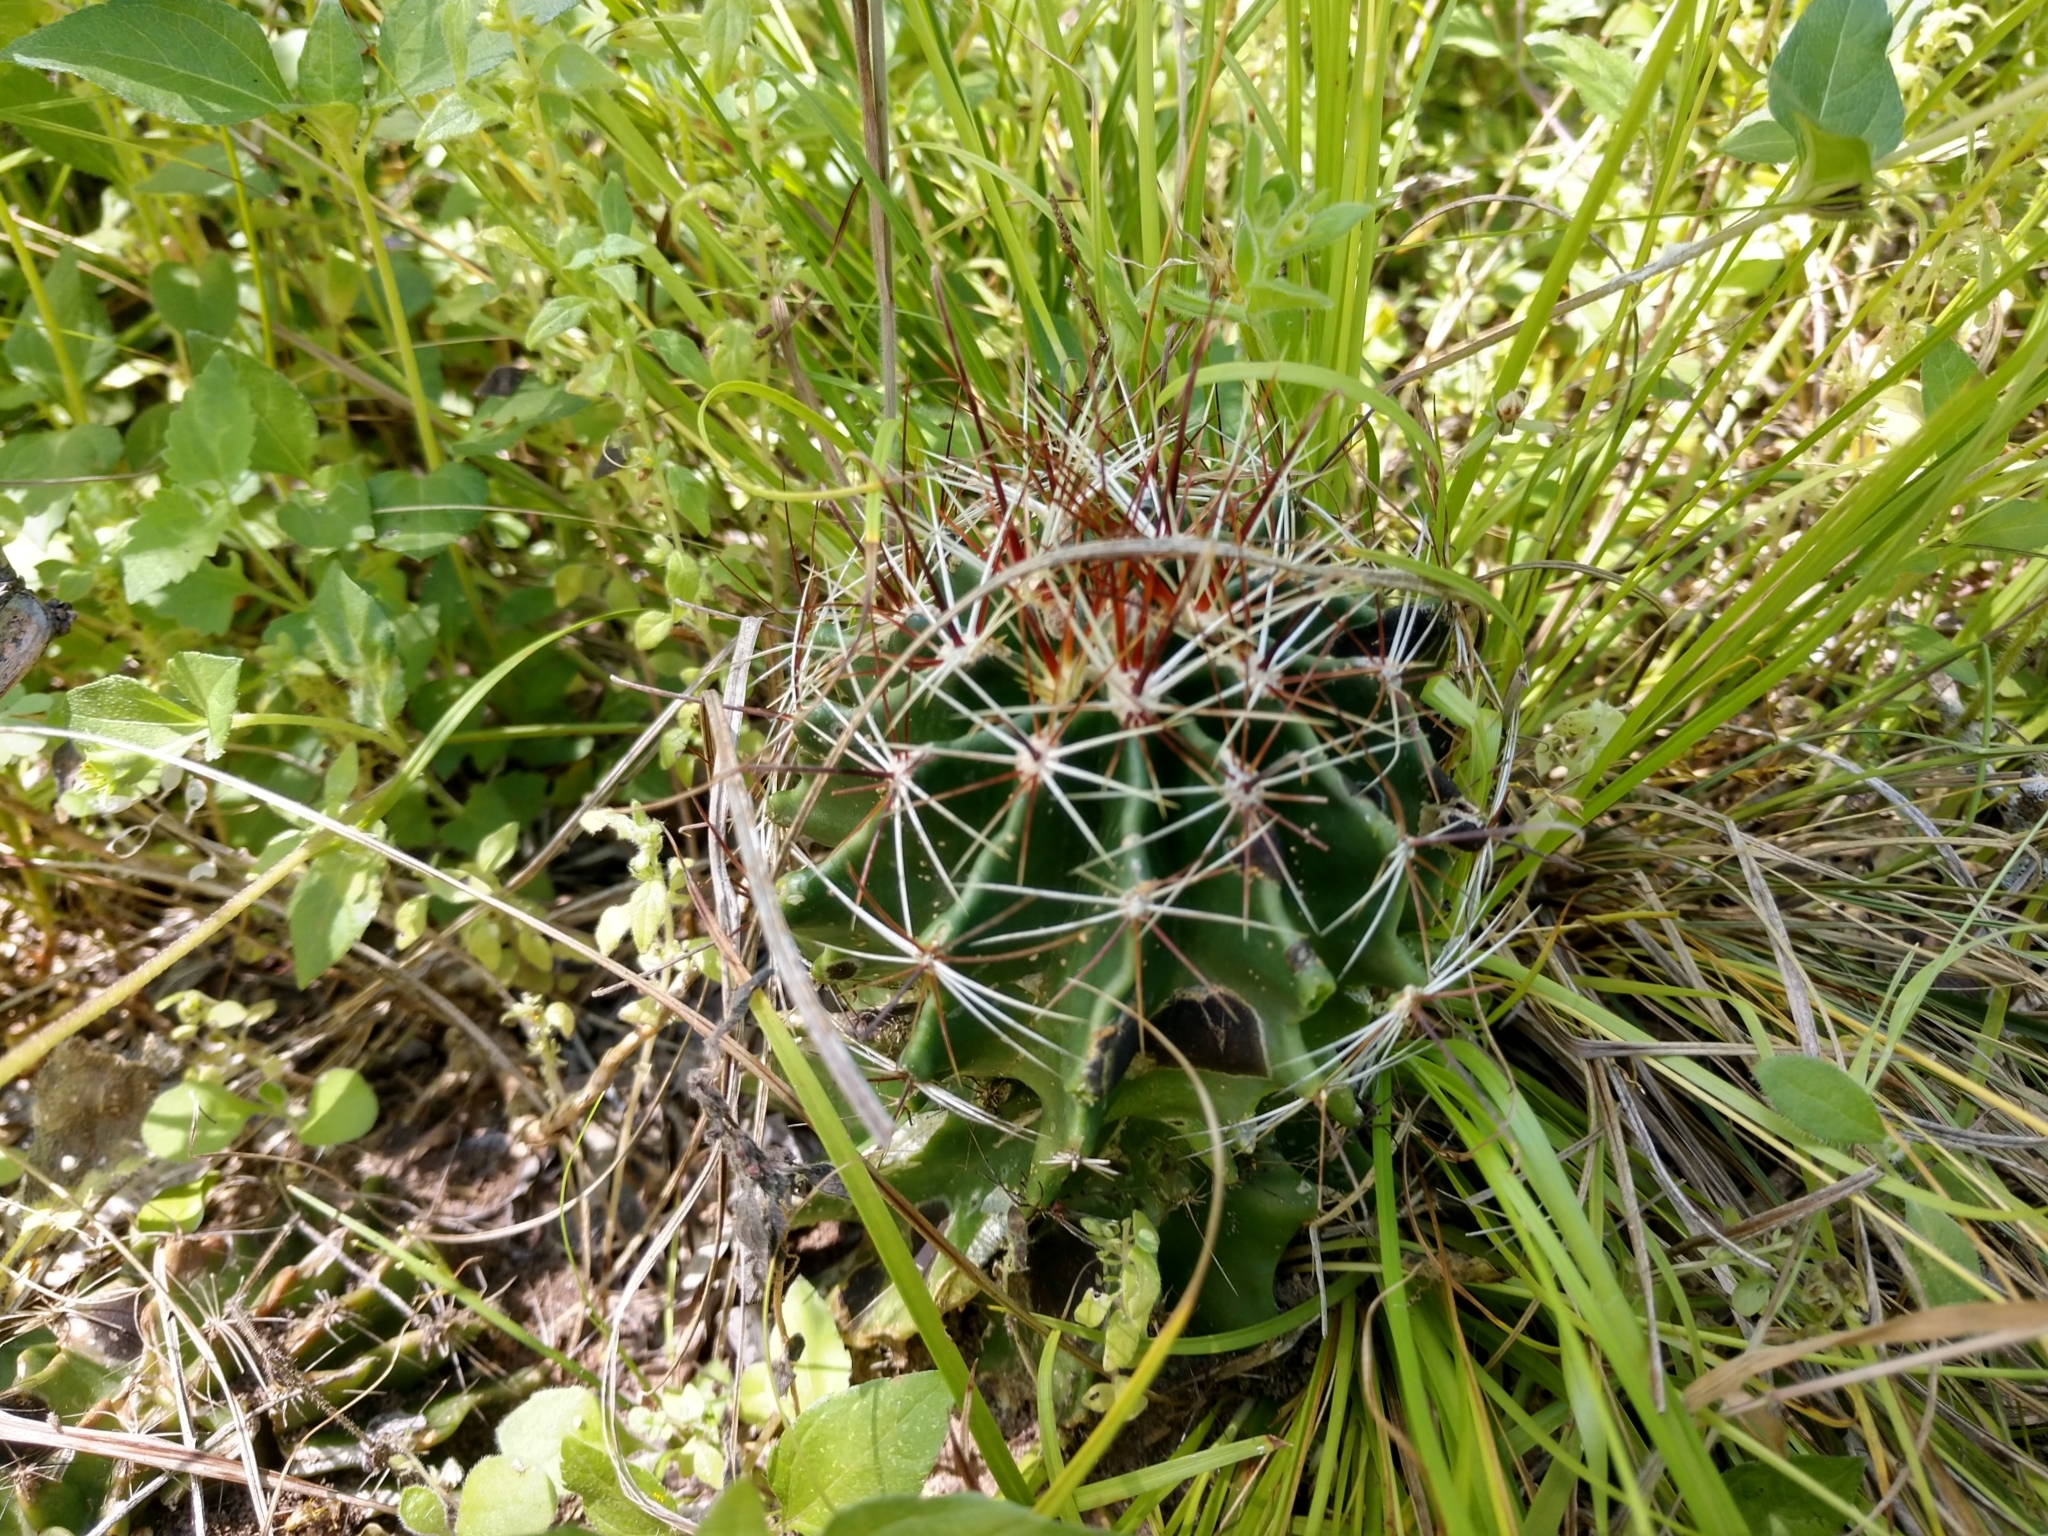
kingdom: Plantae
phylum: Tracheophyta
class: Magnoliopsida
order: Caryophyllales
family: Cactaceae
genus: Thelocactus
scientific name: Thelocactus setispinus
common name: Miniature barrel cactus
